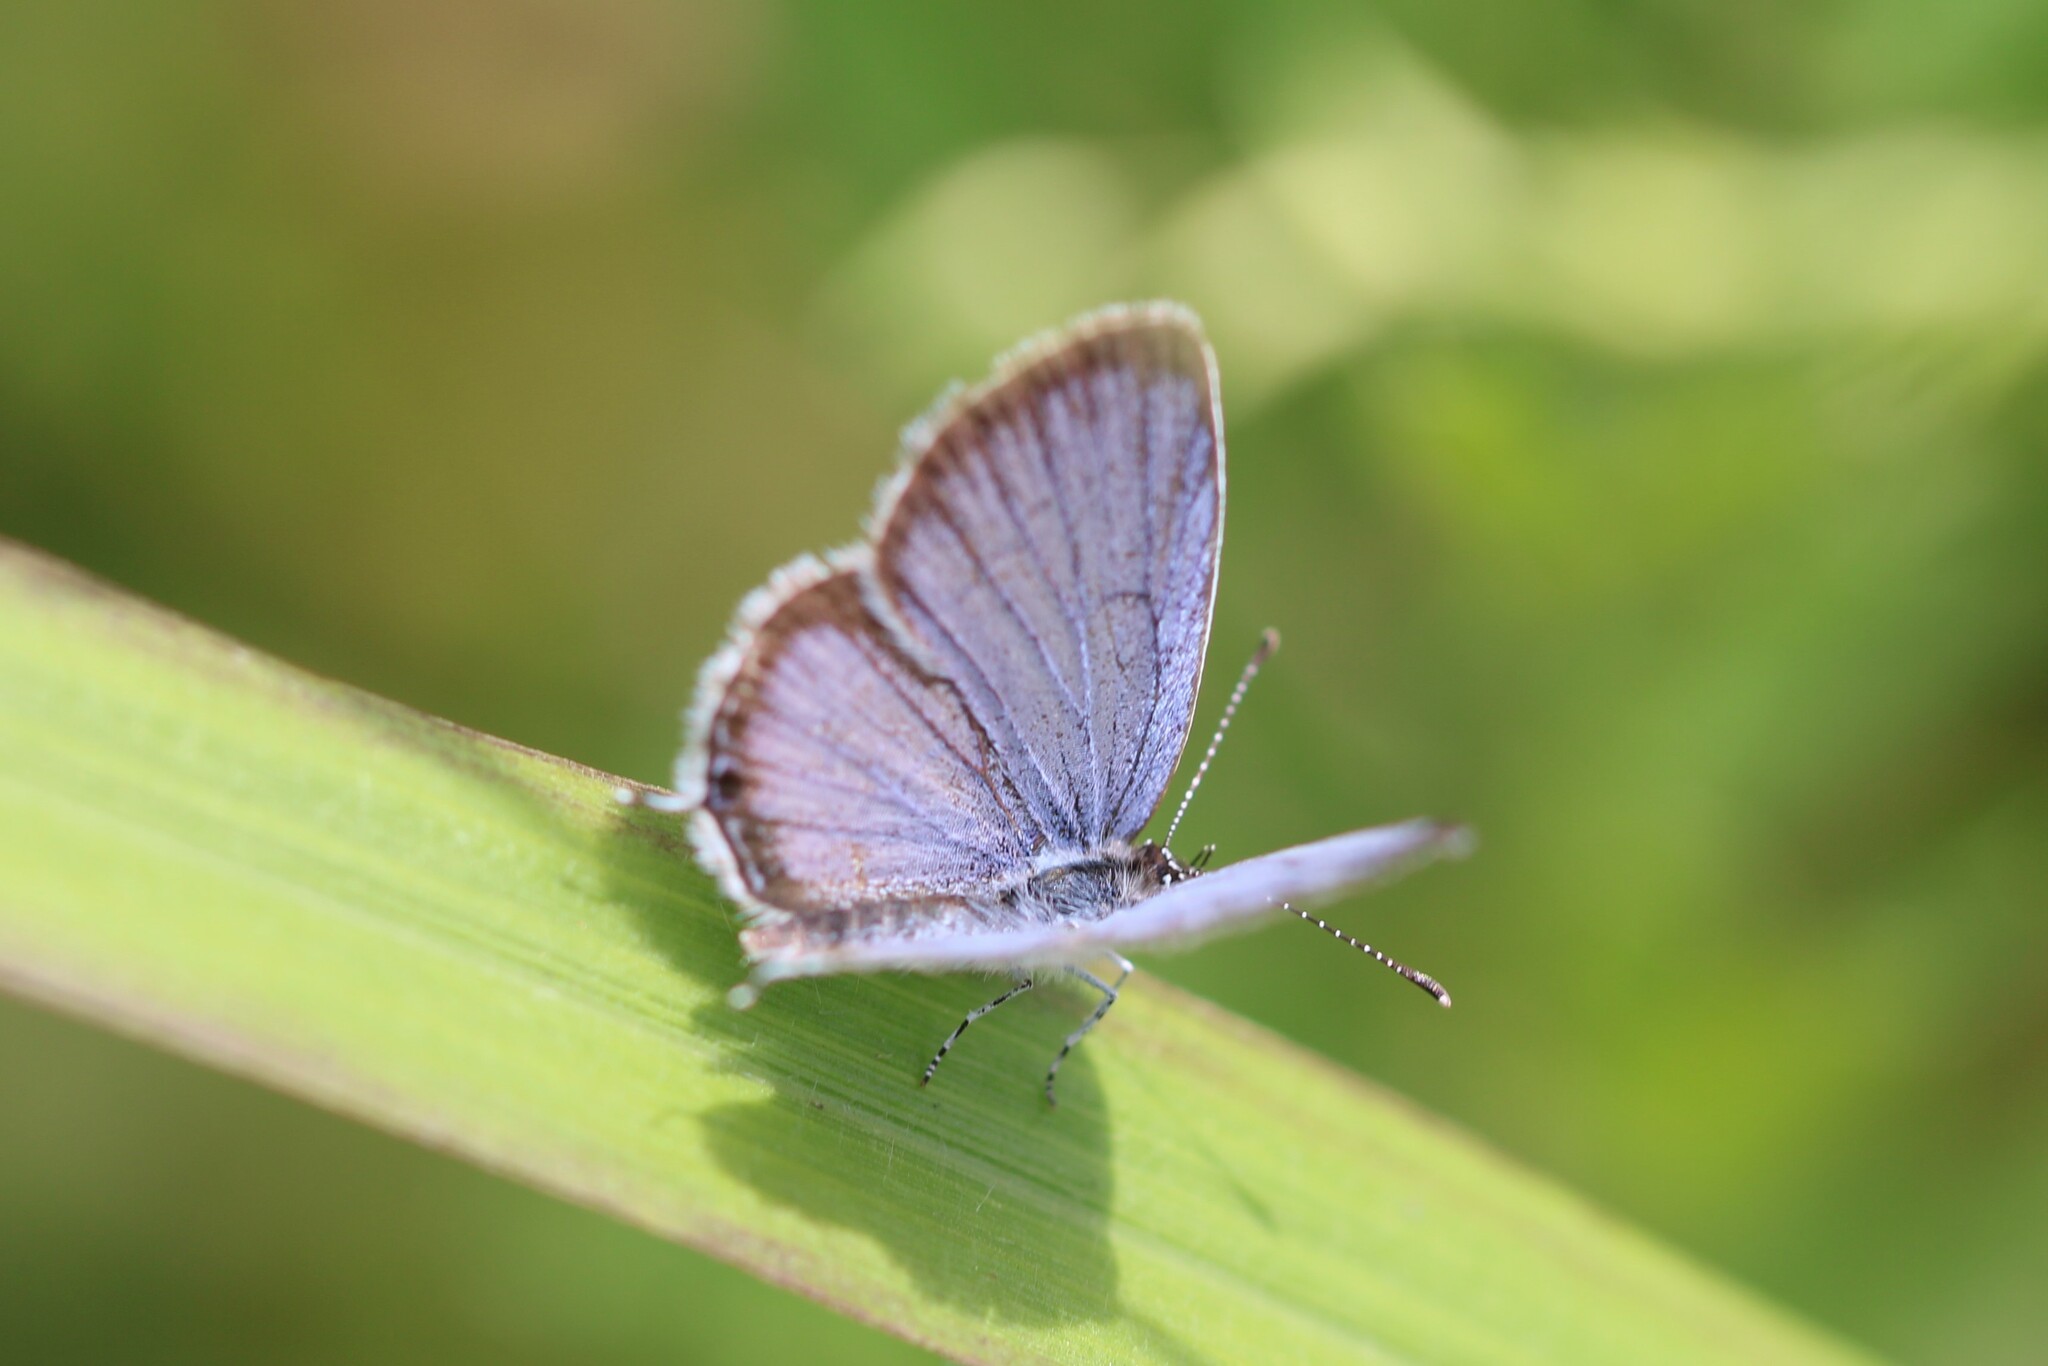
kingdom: Animalia
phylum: Arthropoda
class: Insecta
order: Lepidoptera
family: Lycaenidae
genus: Elkalyce
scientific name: Elkalyce comyntas
